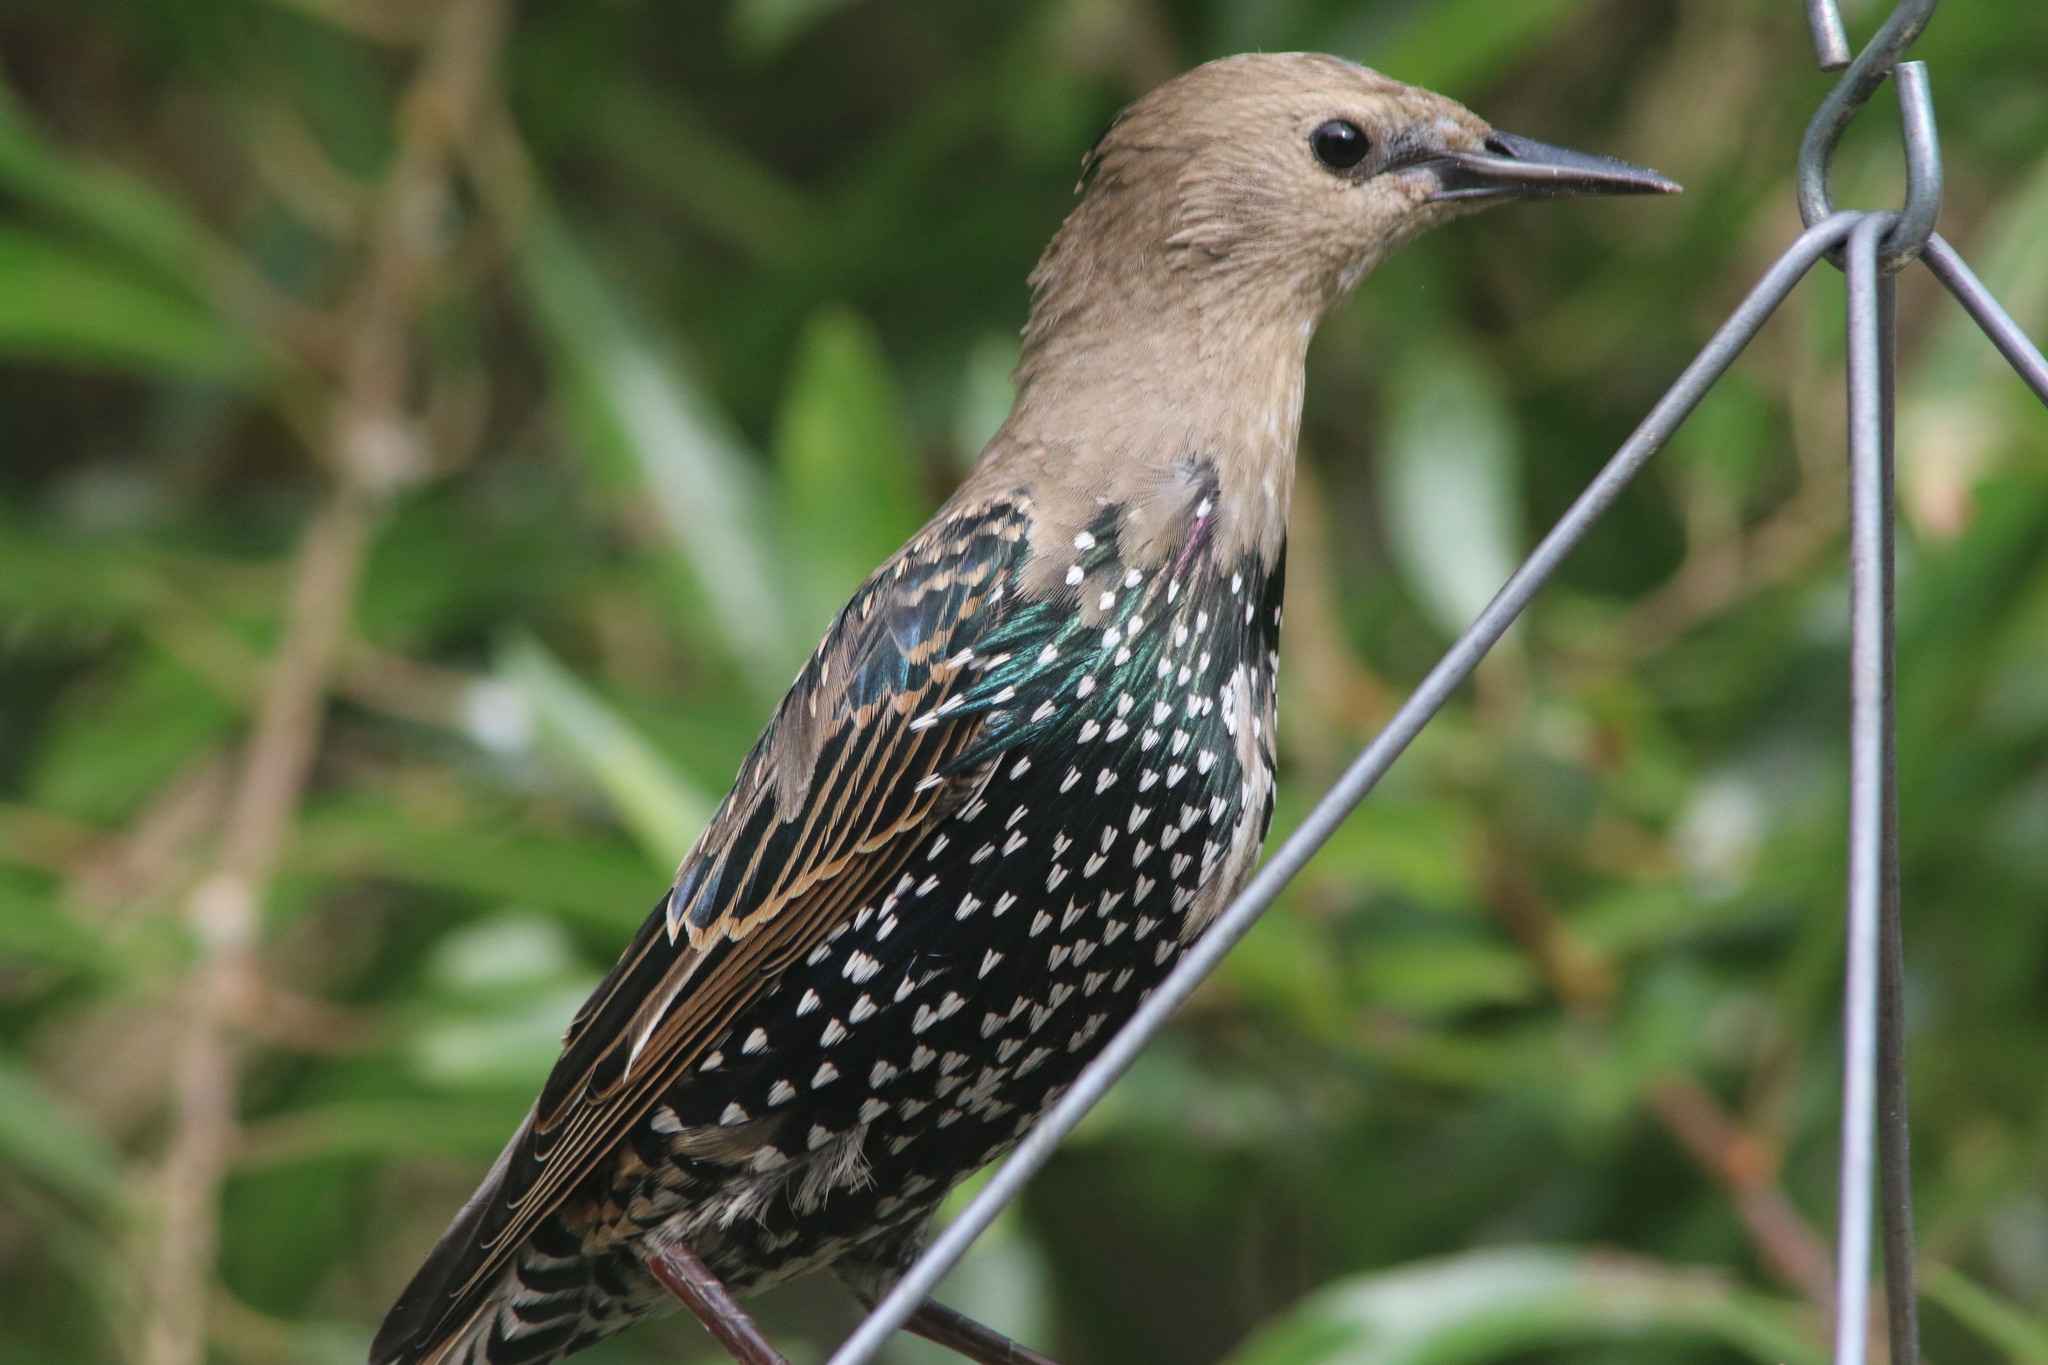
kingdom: Animalia
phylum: Chordata
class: Aves
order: Passeriformes
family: Sturnidae
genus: Sturnus
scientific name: Sturnus vulgaris
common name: Common starling
